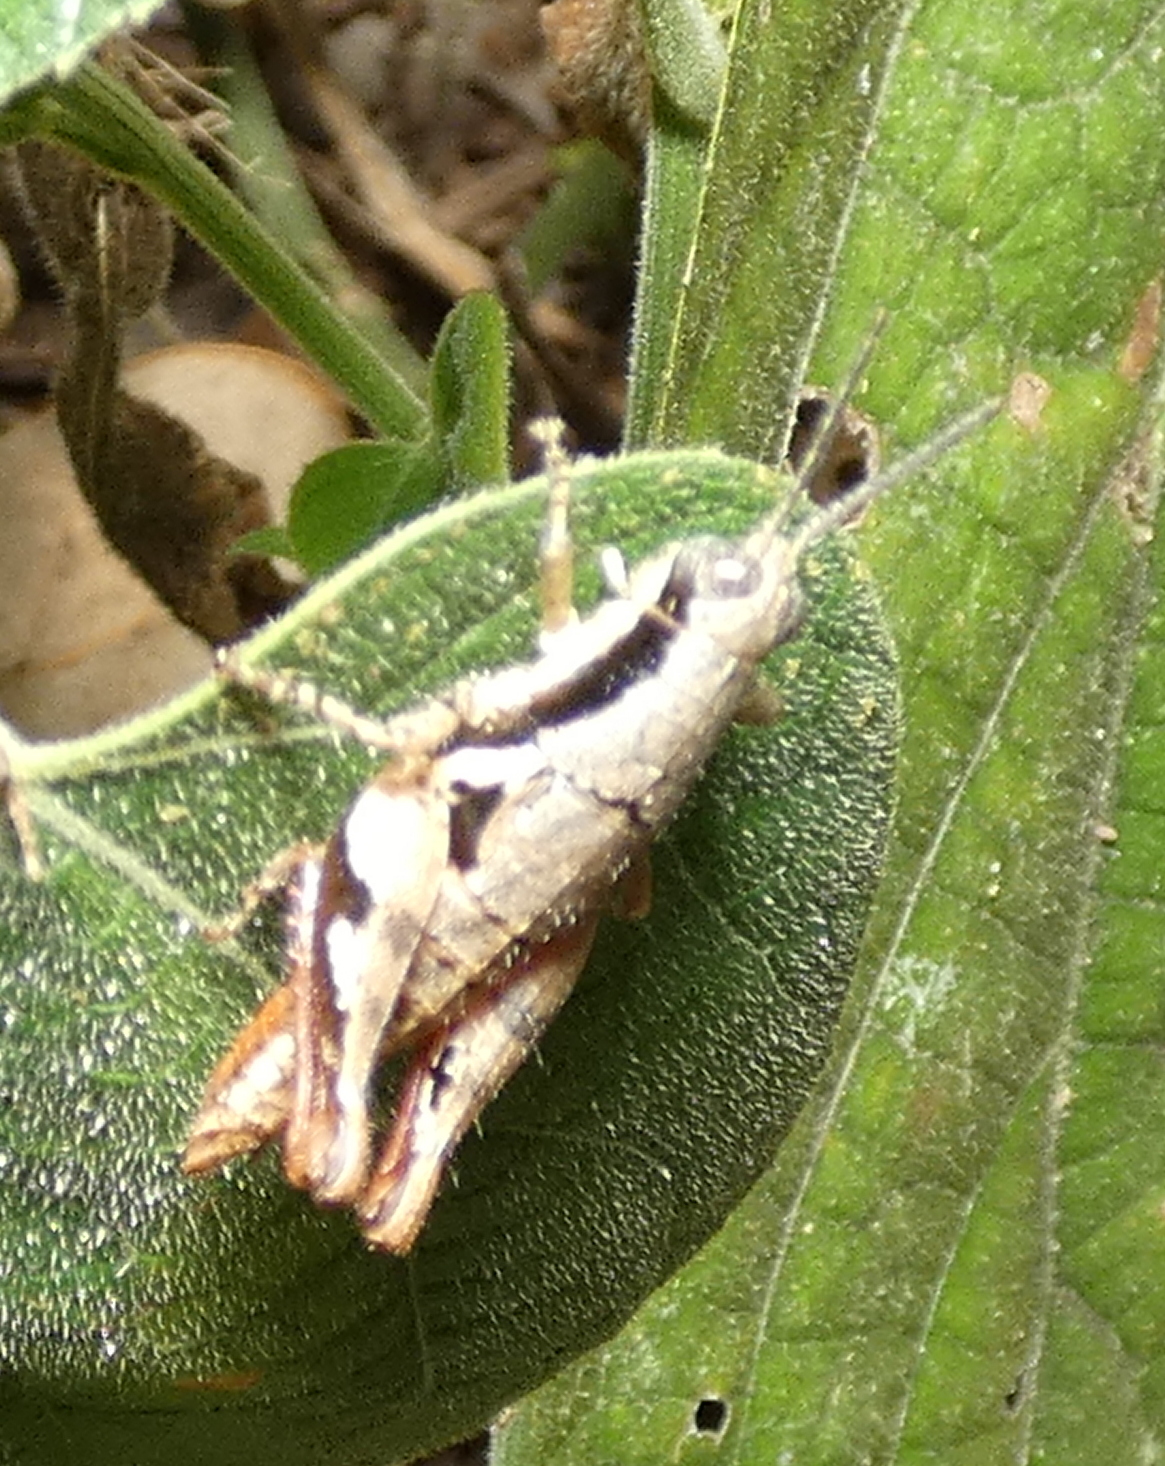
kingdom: Animalia
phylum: Arthropoda
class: Insecta
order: Orthoptera
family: Acrididae
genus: Eujivarus
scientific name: Eujivarus meridionalis
